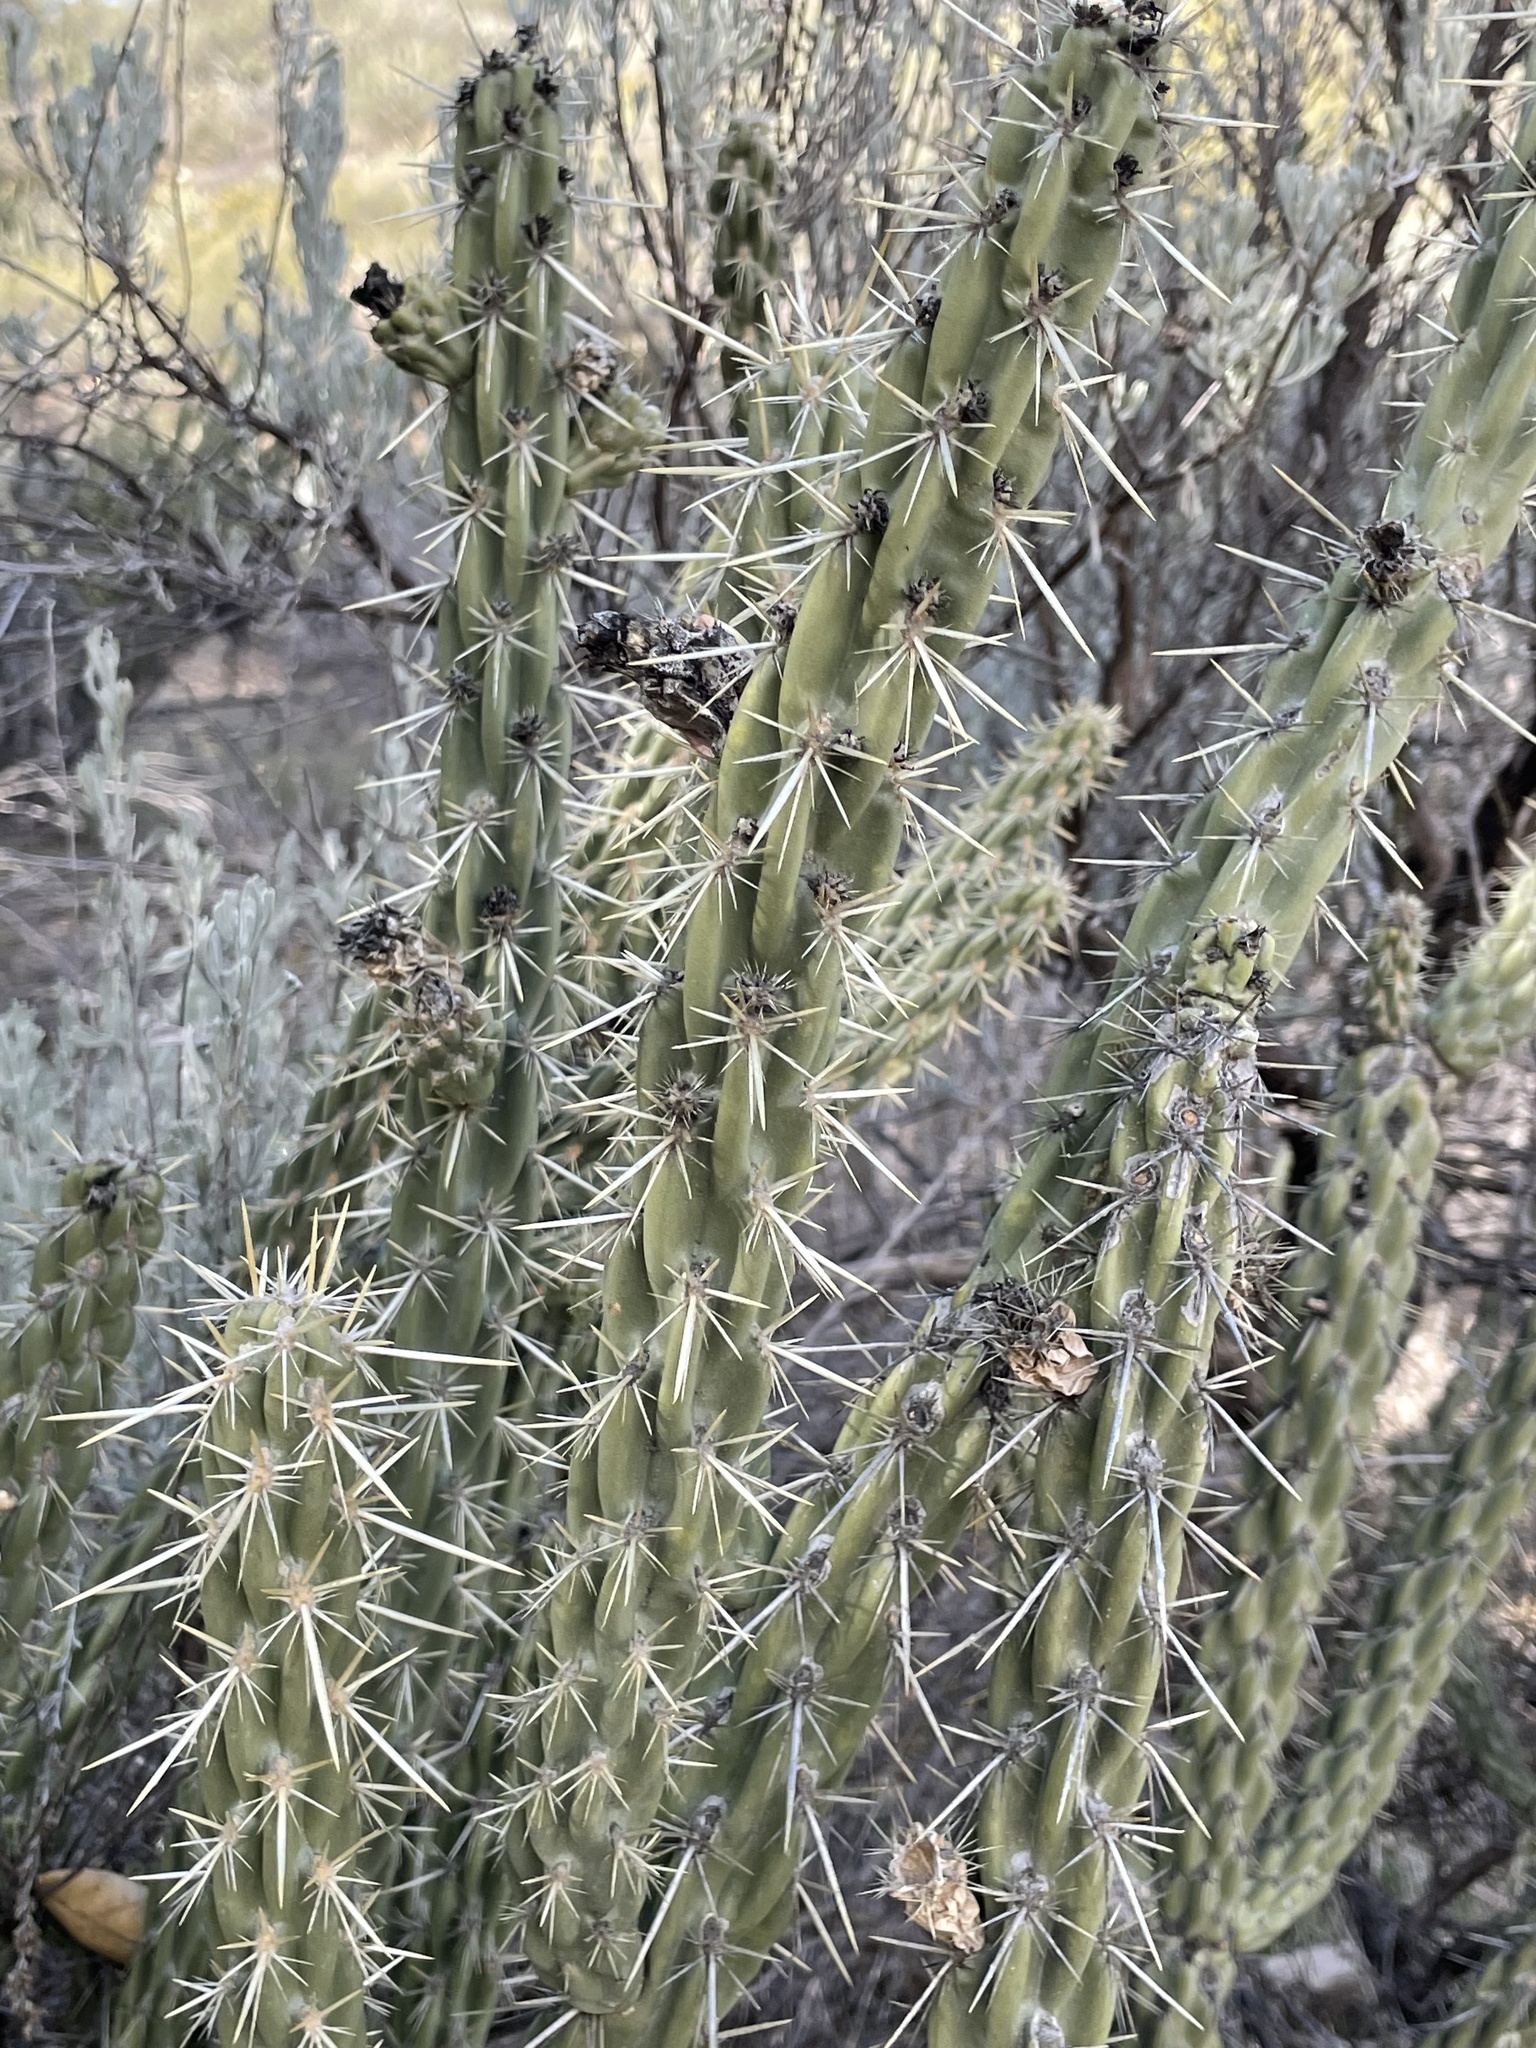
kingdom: Plantae
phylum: Tracheophyta
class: Magnoliopsida
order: Caryophyllales
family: Cactaceae
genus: Cylindropuntia
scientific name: Cylindropuntia bernardina
